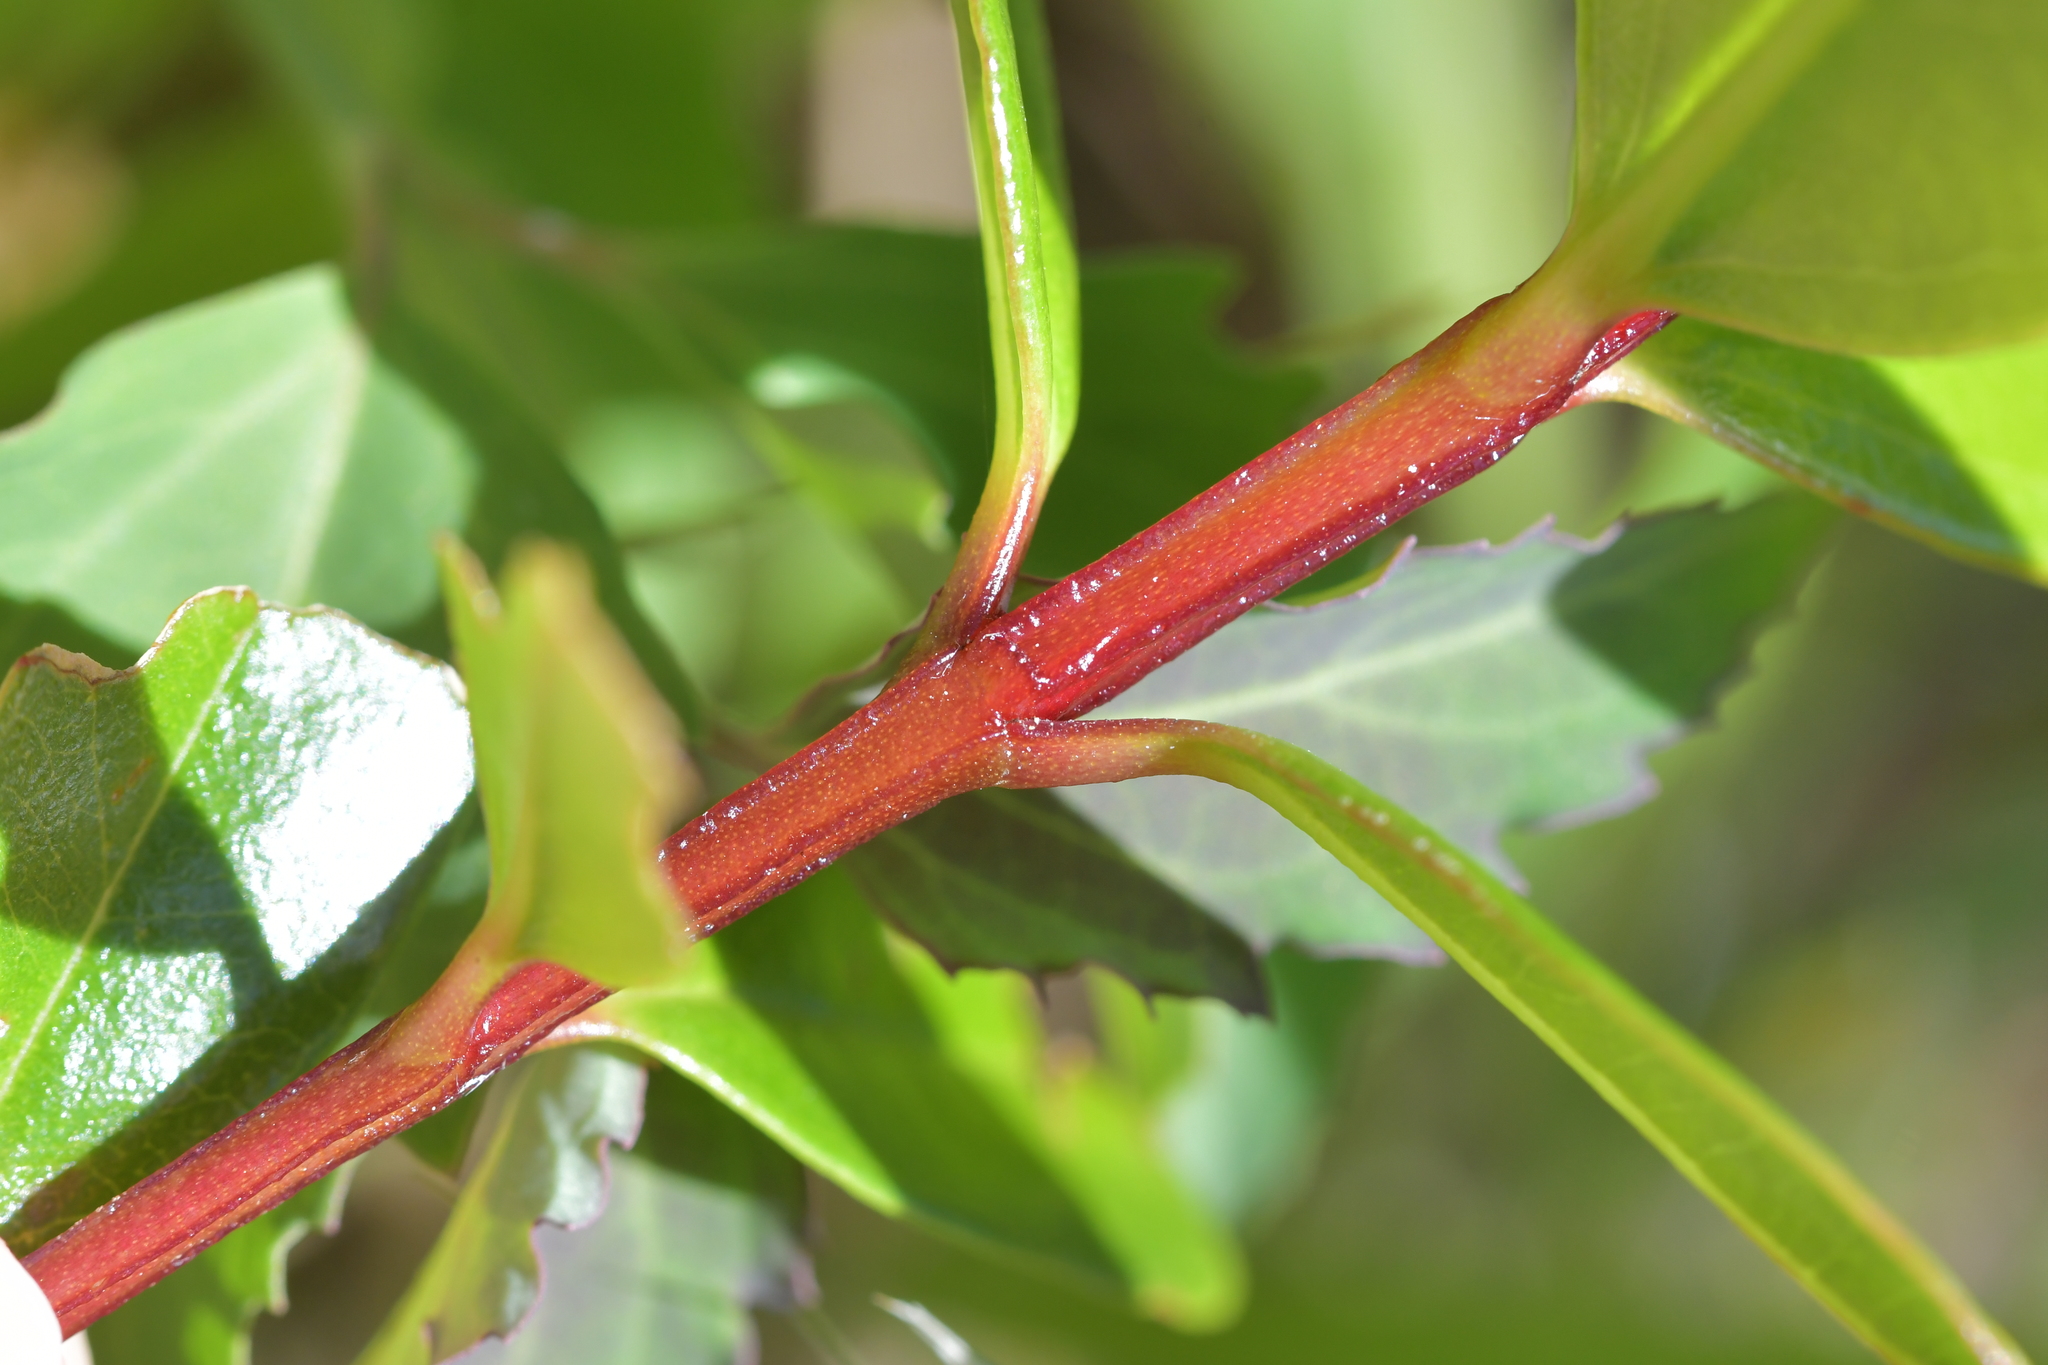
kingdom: Plantae
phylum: Tracheophyta
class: Magnoliopsida
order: Myrtales
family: Myrtaceae
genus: Metrosideros
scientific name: Metrosideros excelsa
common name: New zealand christmastree
